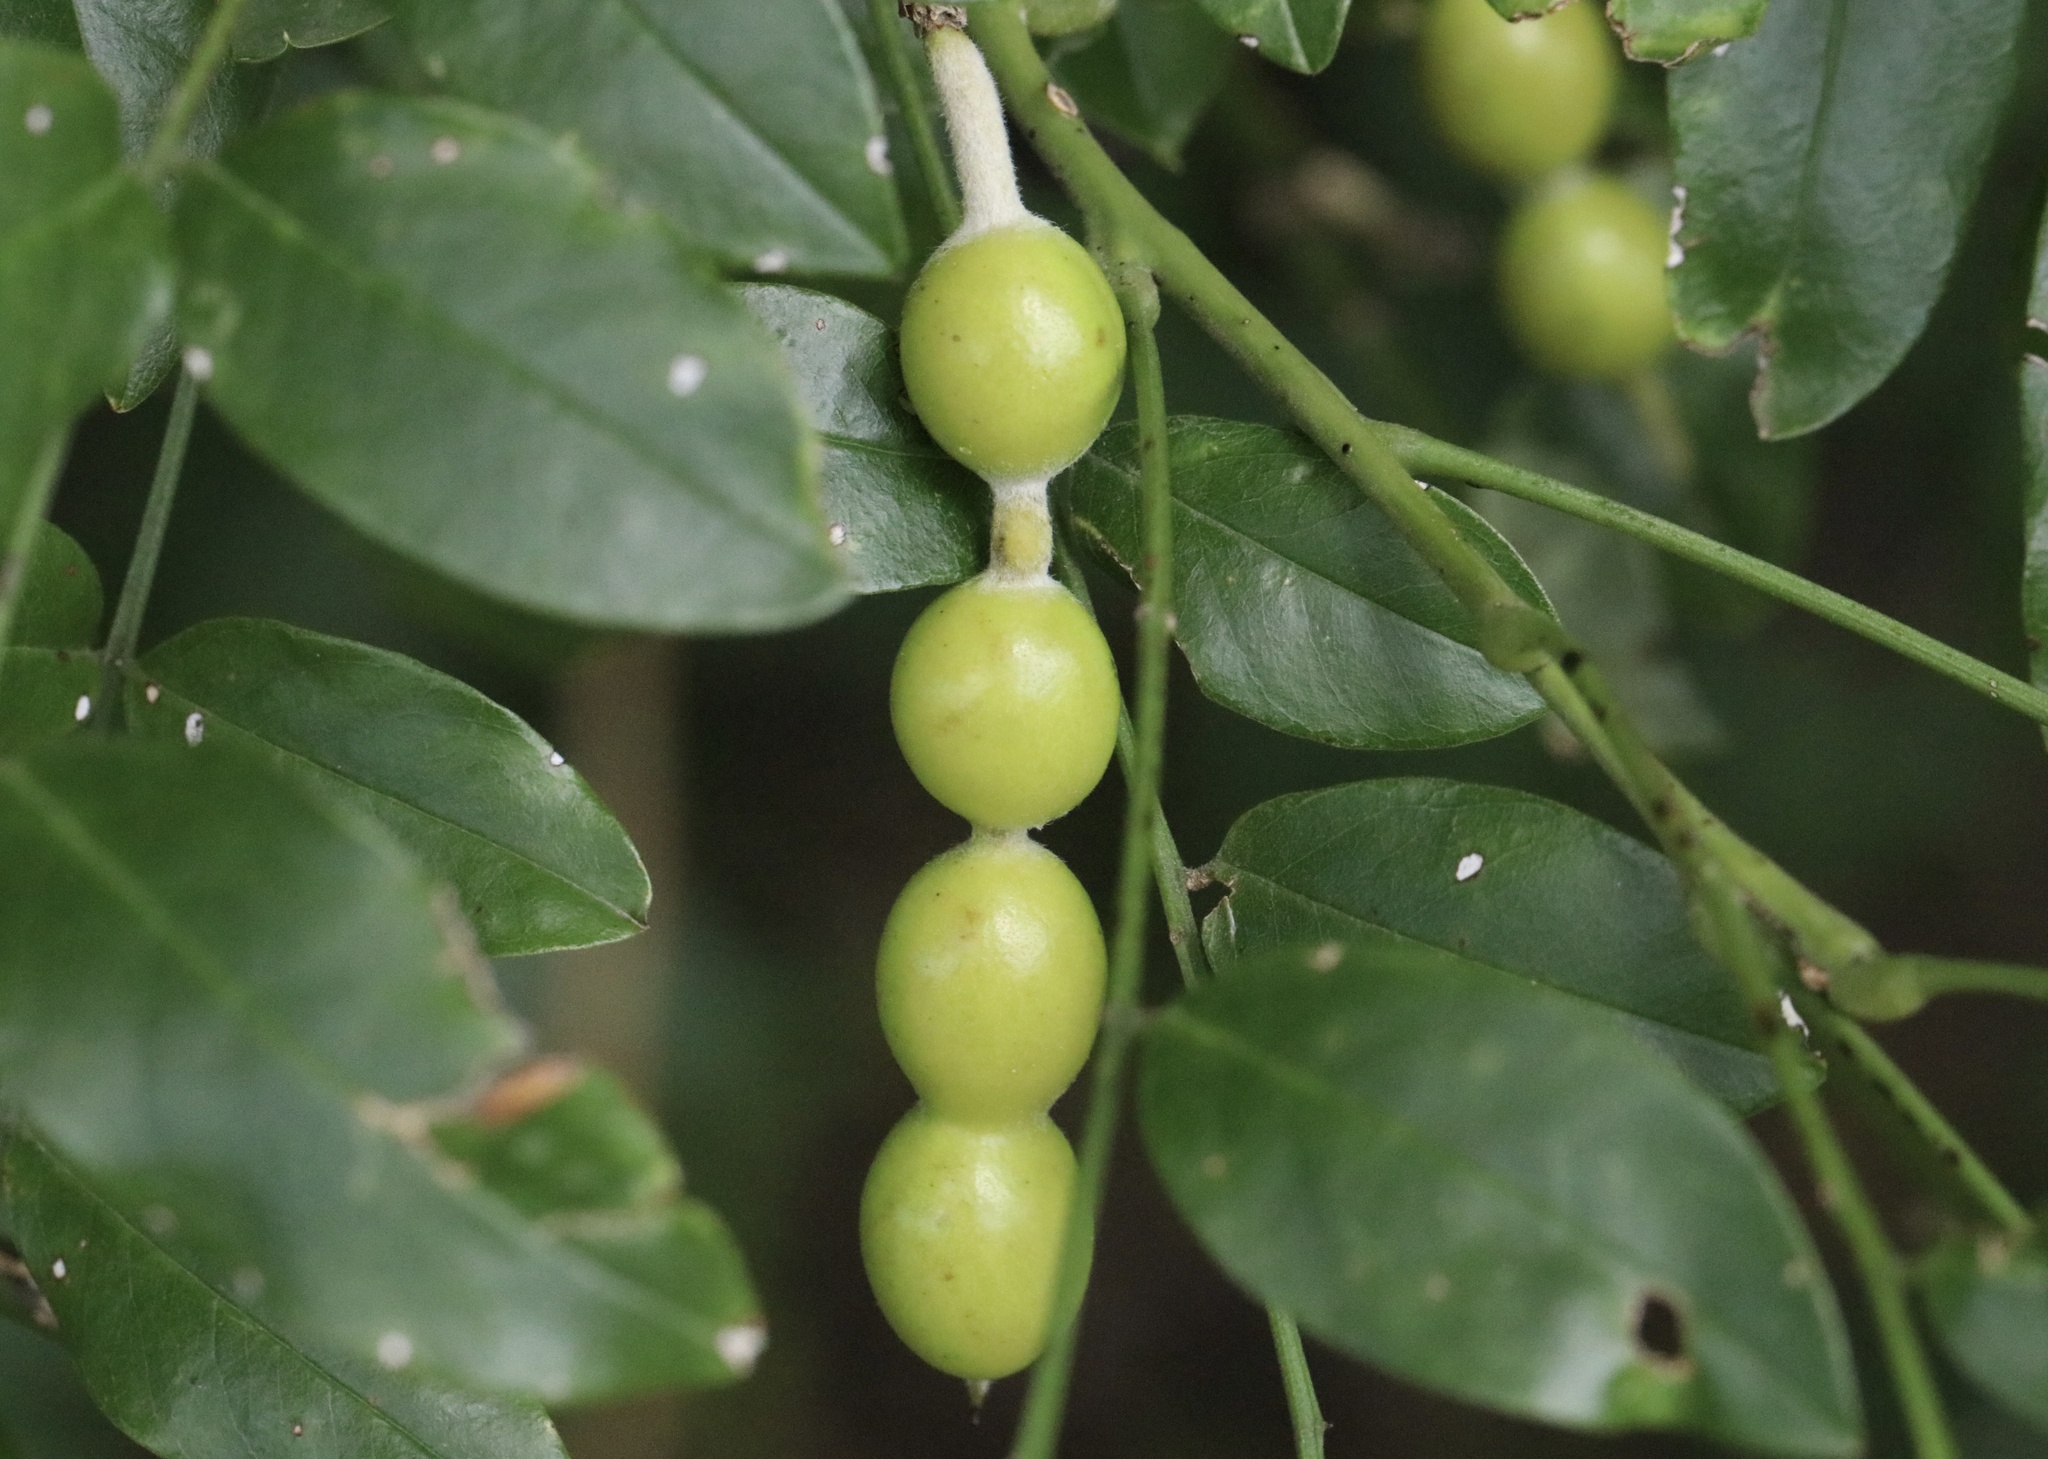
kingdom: Plantae
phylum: Tracheophyta
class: Magnoliopsida
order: Fabales
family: Fabaceae
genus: Styphnolobium
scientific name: Styphnolobium affine
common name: Texas sophora
